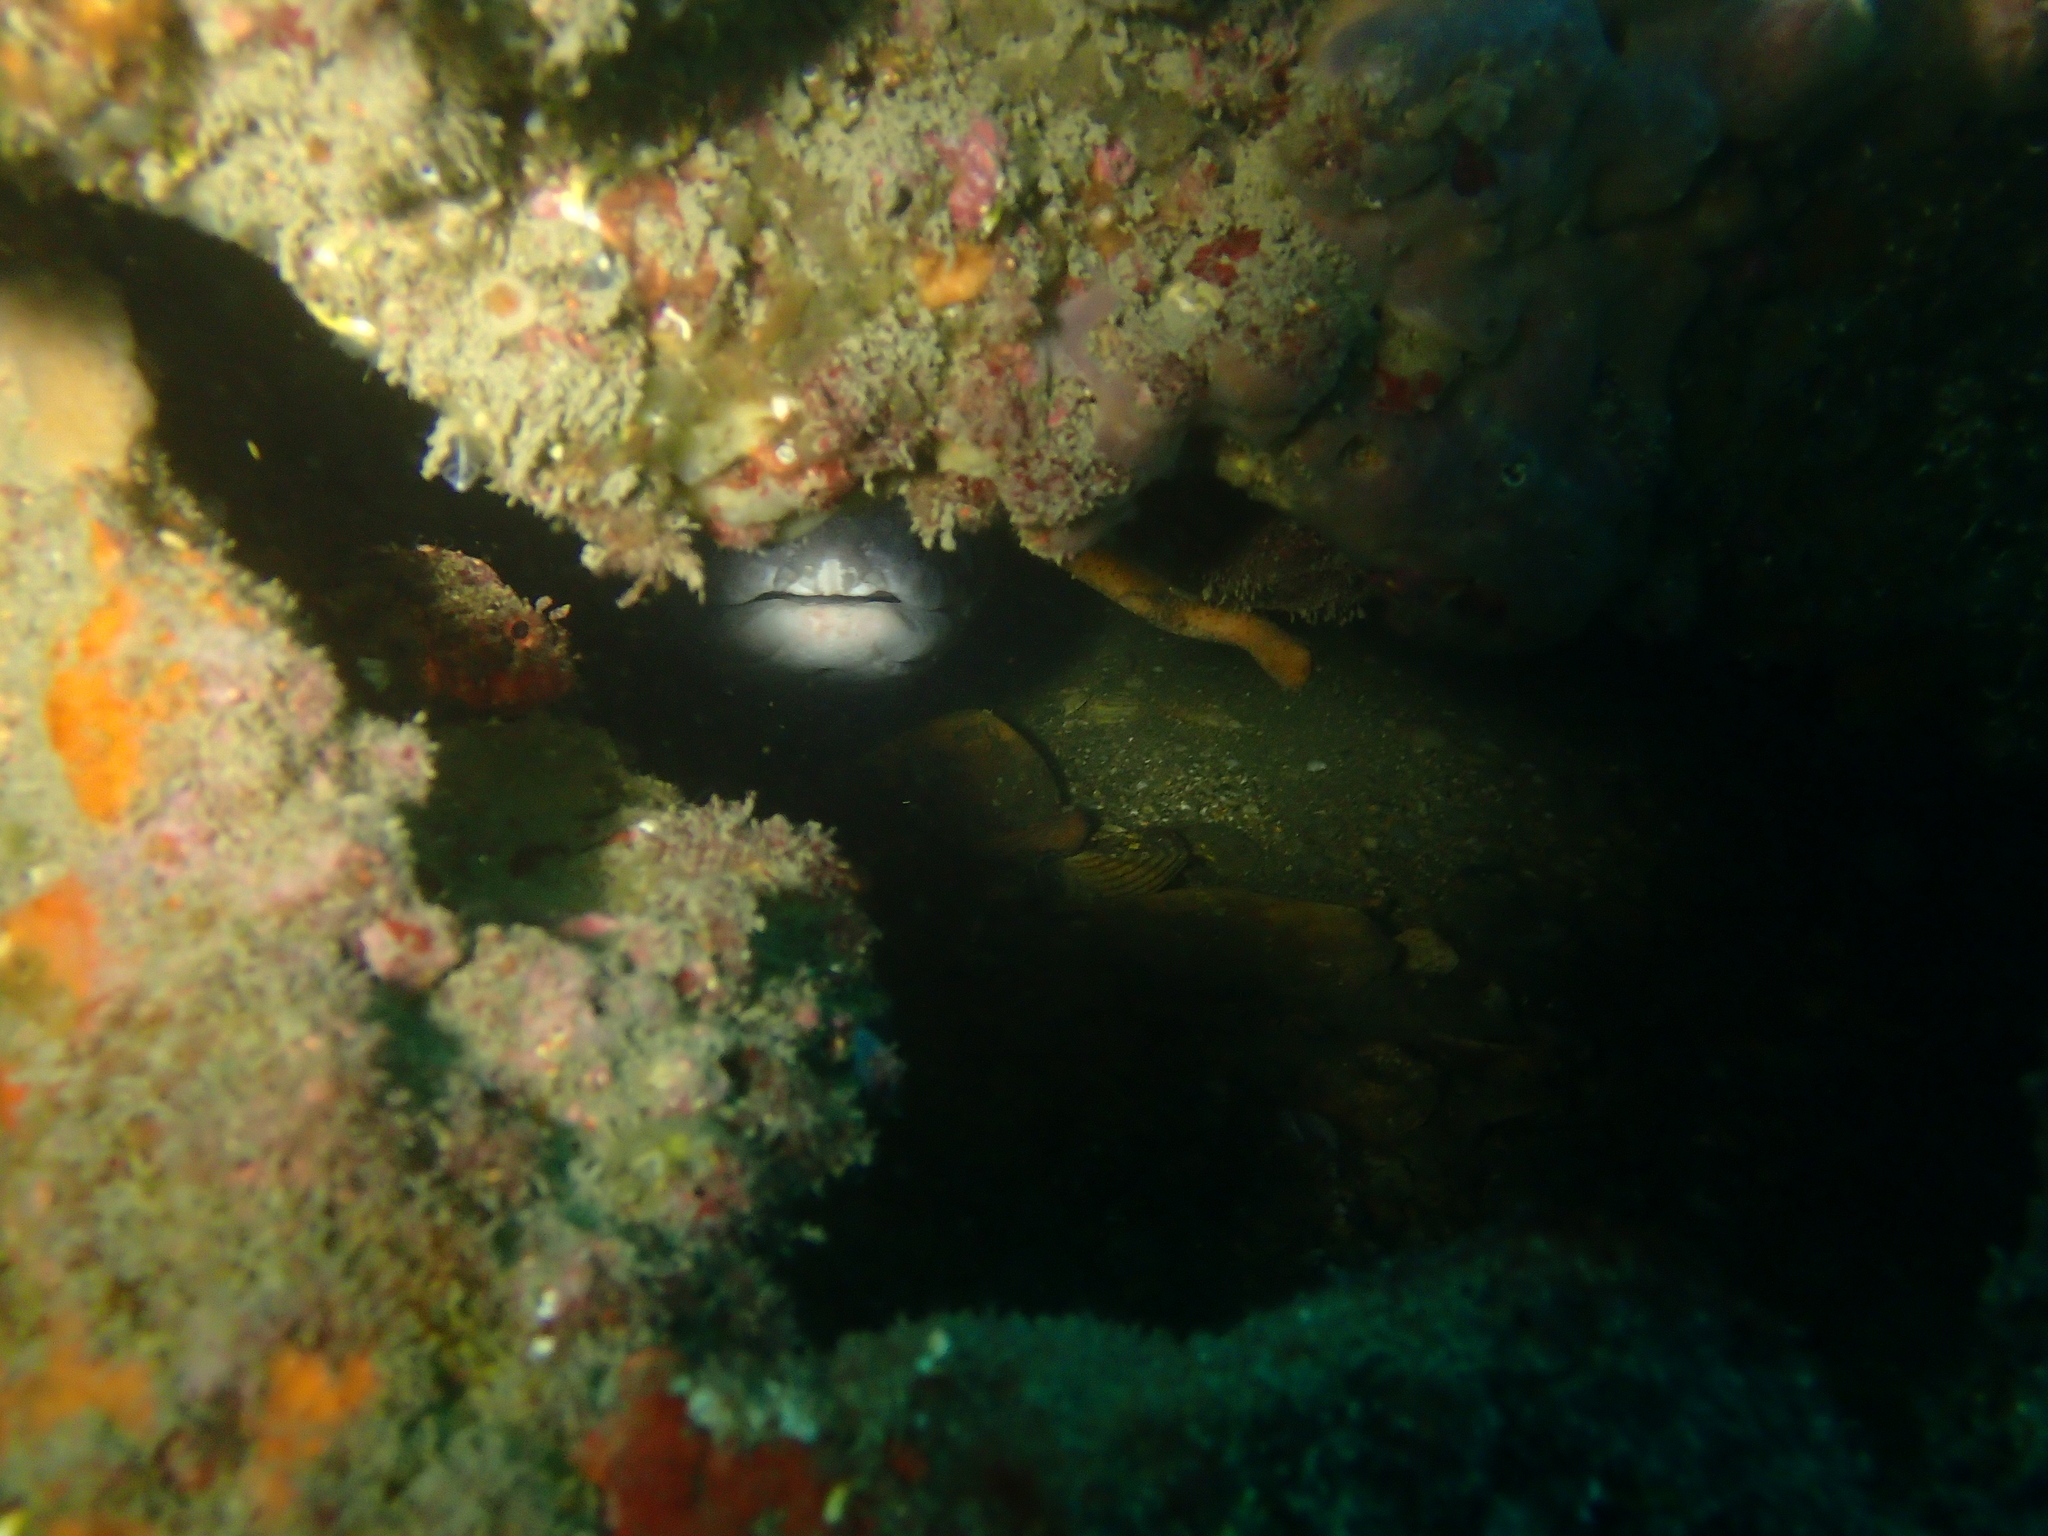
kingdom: Animalia
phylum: Chordata
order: Anguilliformes
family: Congridae
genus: Conger
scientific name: Conger conger
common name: Conger eel
